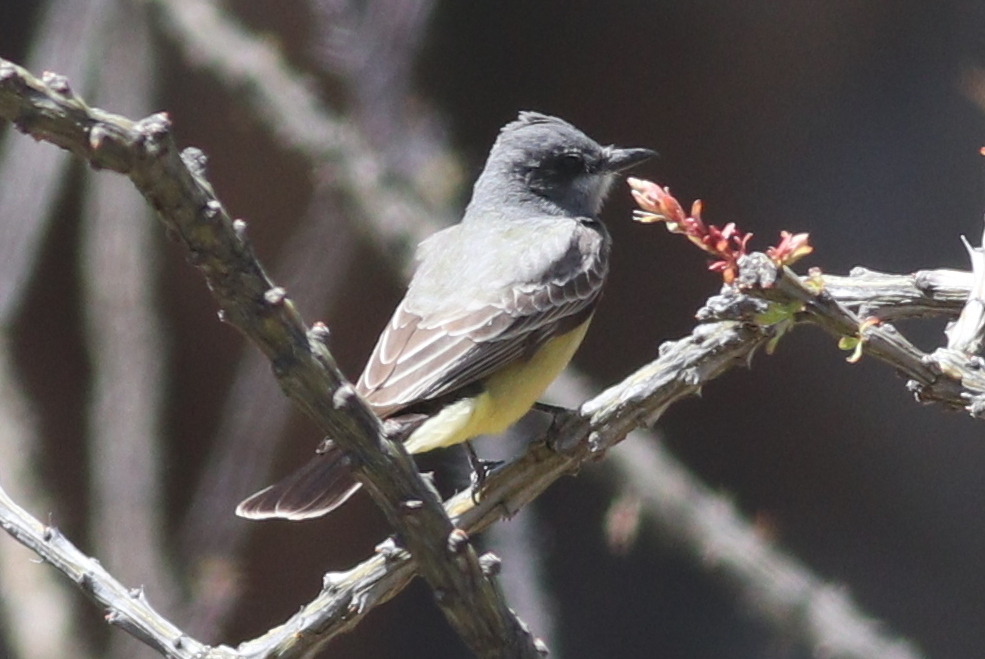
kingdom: Animalia
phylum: Chordata
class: Aves
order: Passeriformes
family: Tyrannidae
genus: Tyrannus
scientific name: Tyrannus vociferans
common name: Cassin's kingbird
